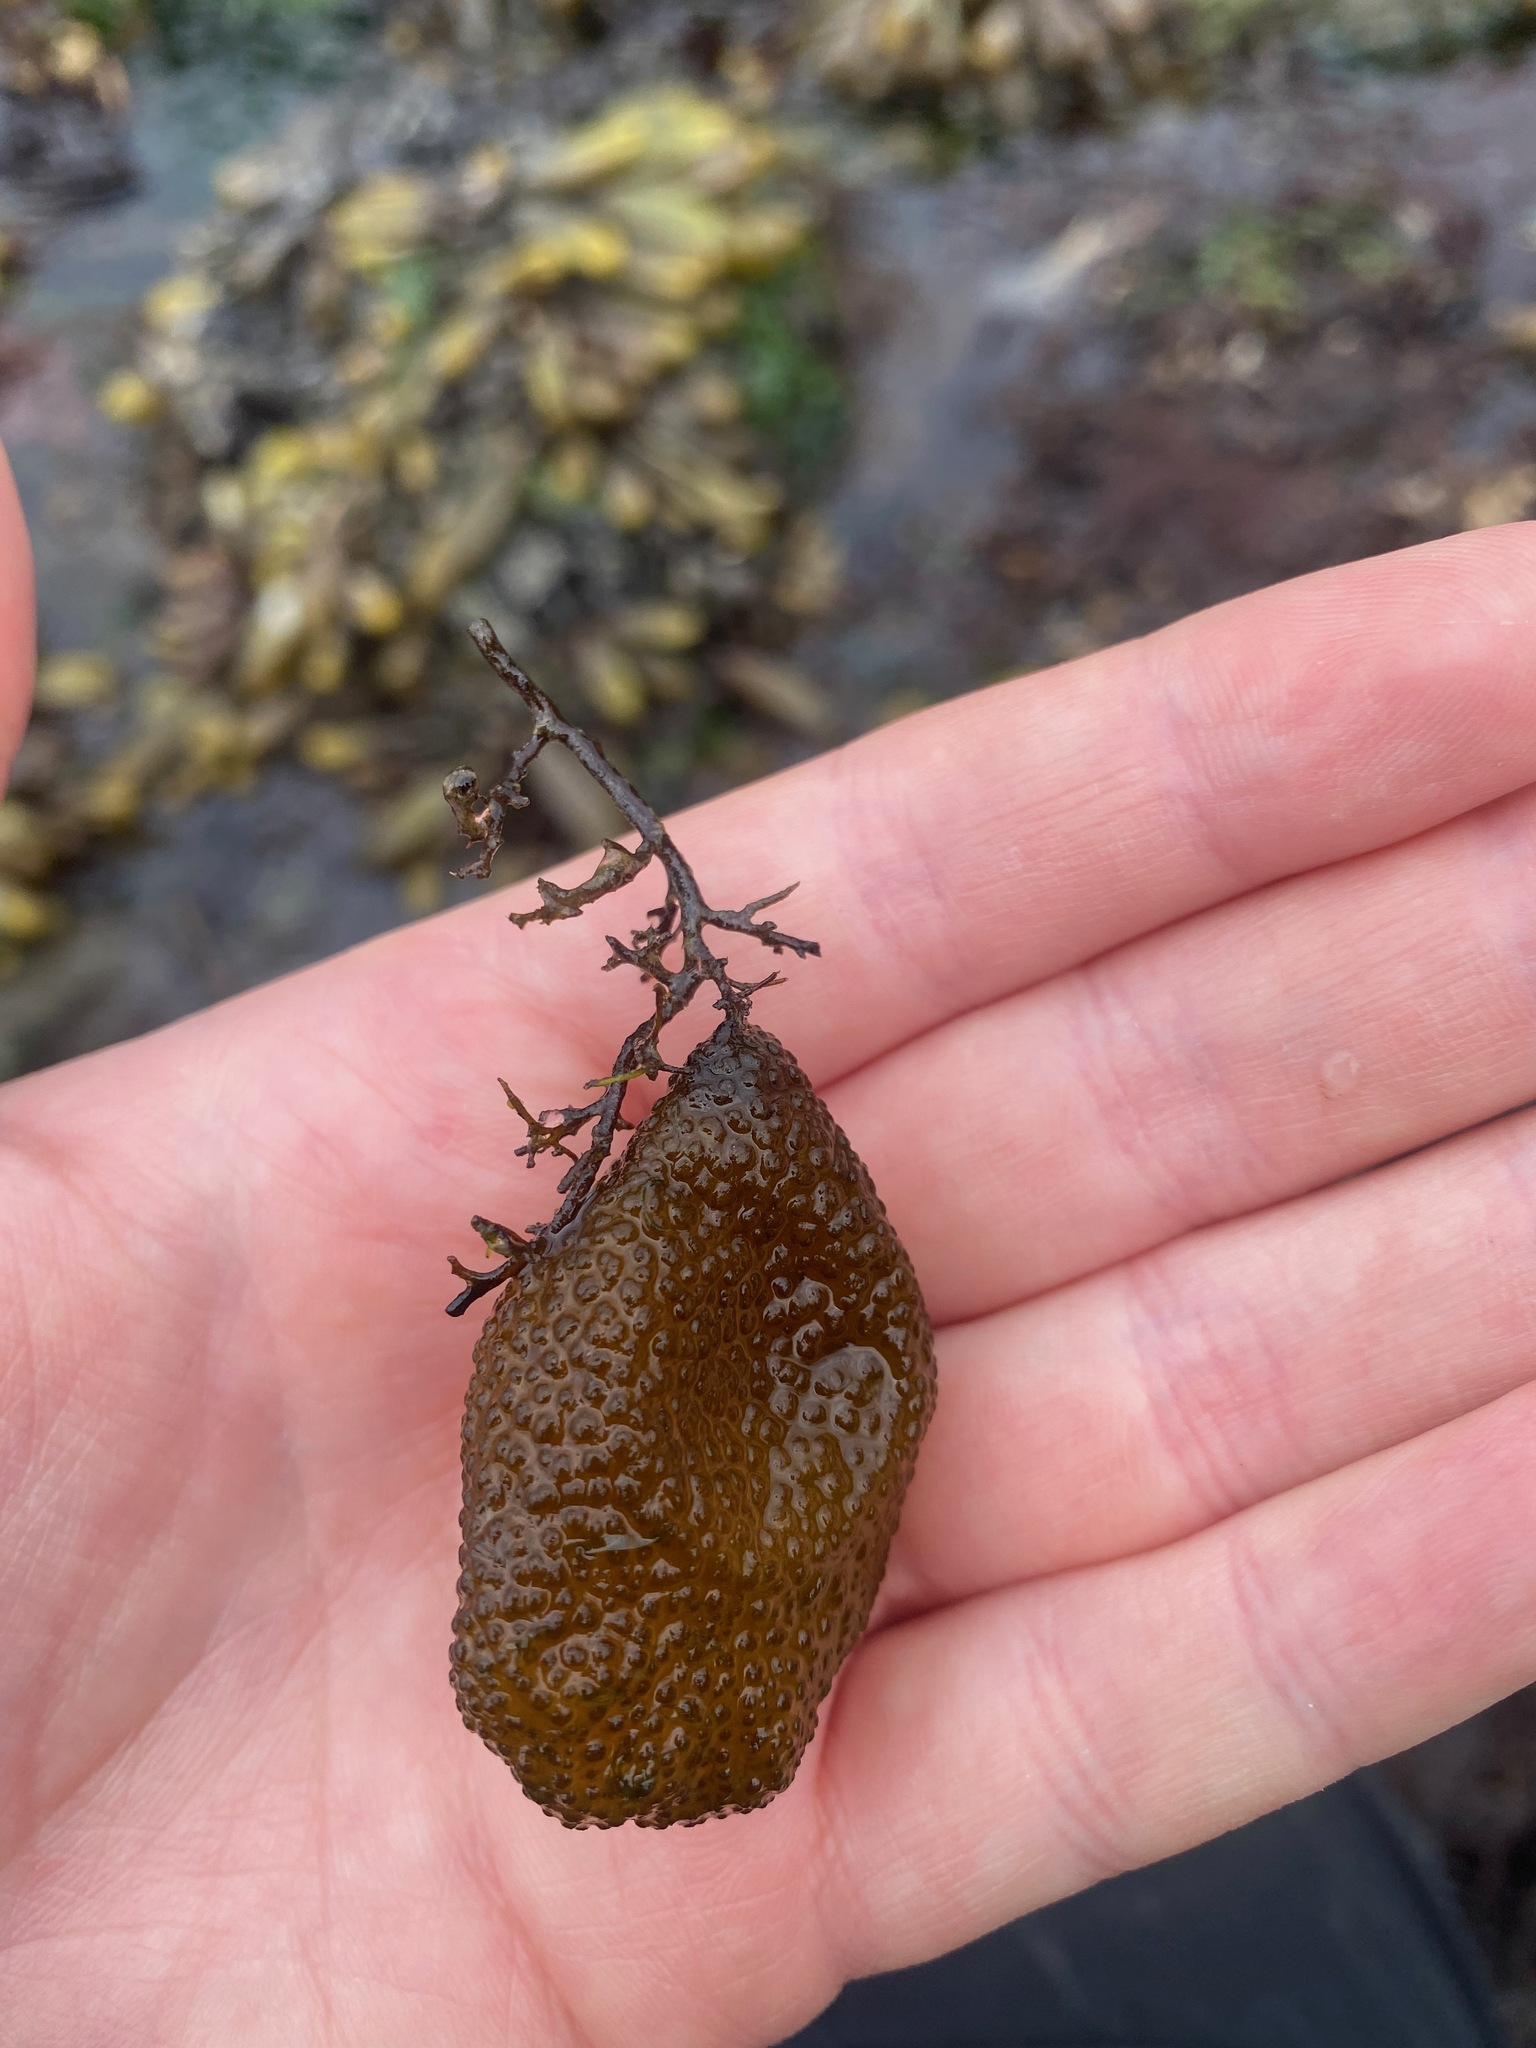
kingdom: Chromista
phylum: Ochrophyta
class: Phaeophyceae
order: Dictyosiphonales
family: Punctariaceae
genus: Soranthera
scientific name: Soranthera ulvoidea
